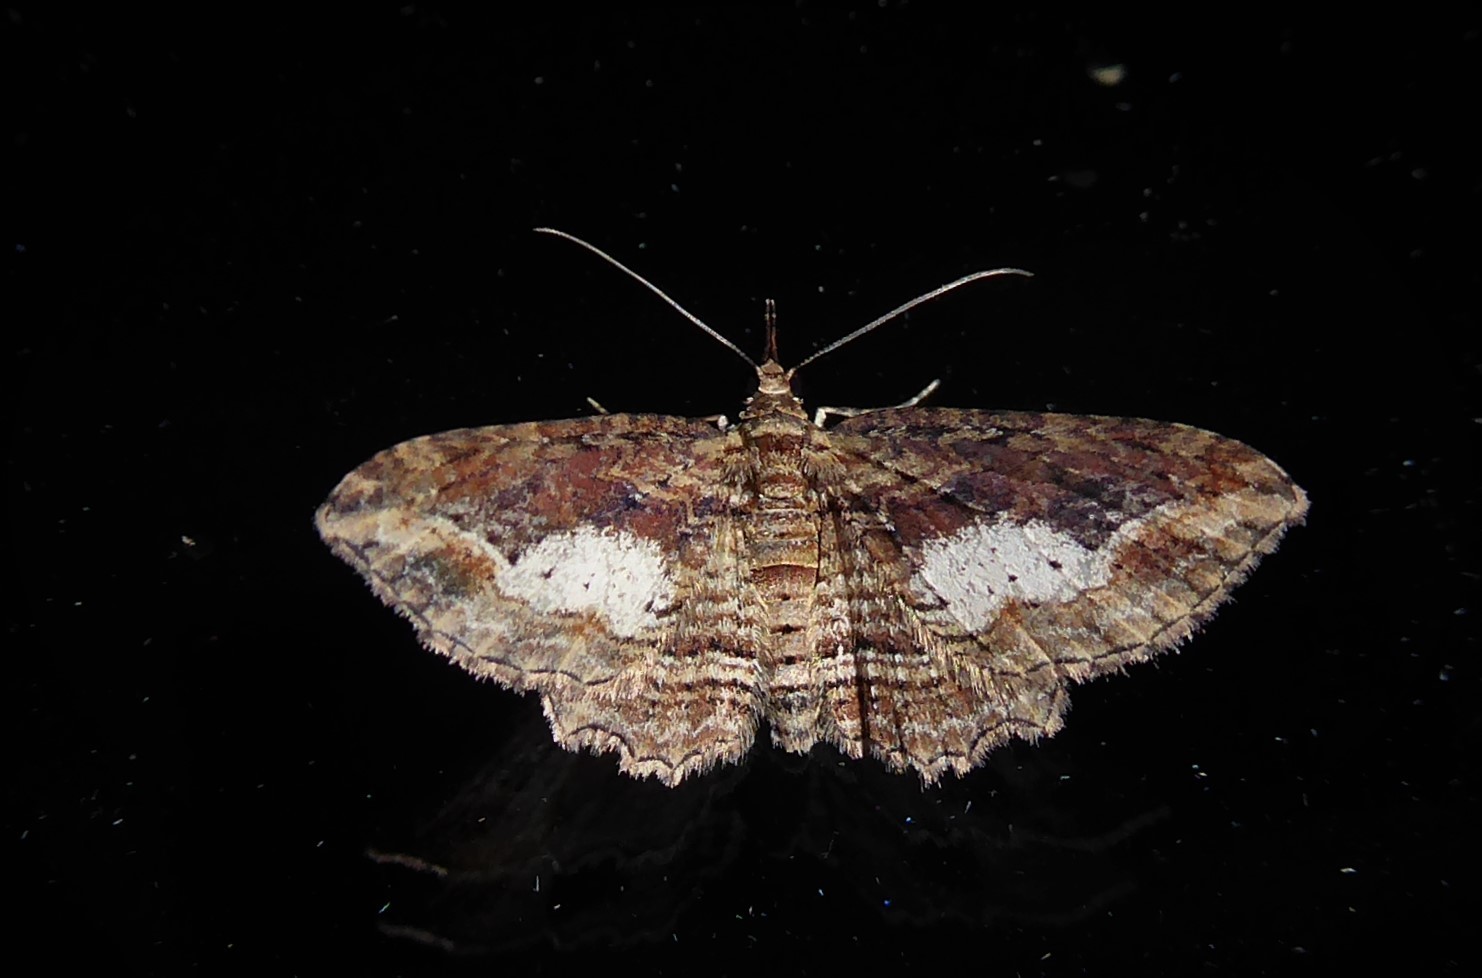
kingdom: Animalia
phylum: Arthropoda
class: Insecta
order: Lepidoptera
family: Geometridae
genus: Chloroclystis
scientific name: Chloroclystis filata
